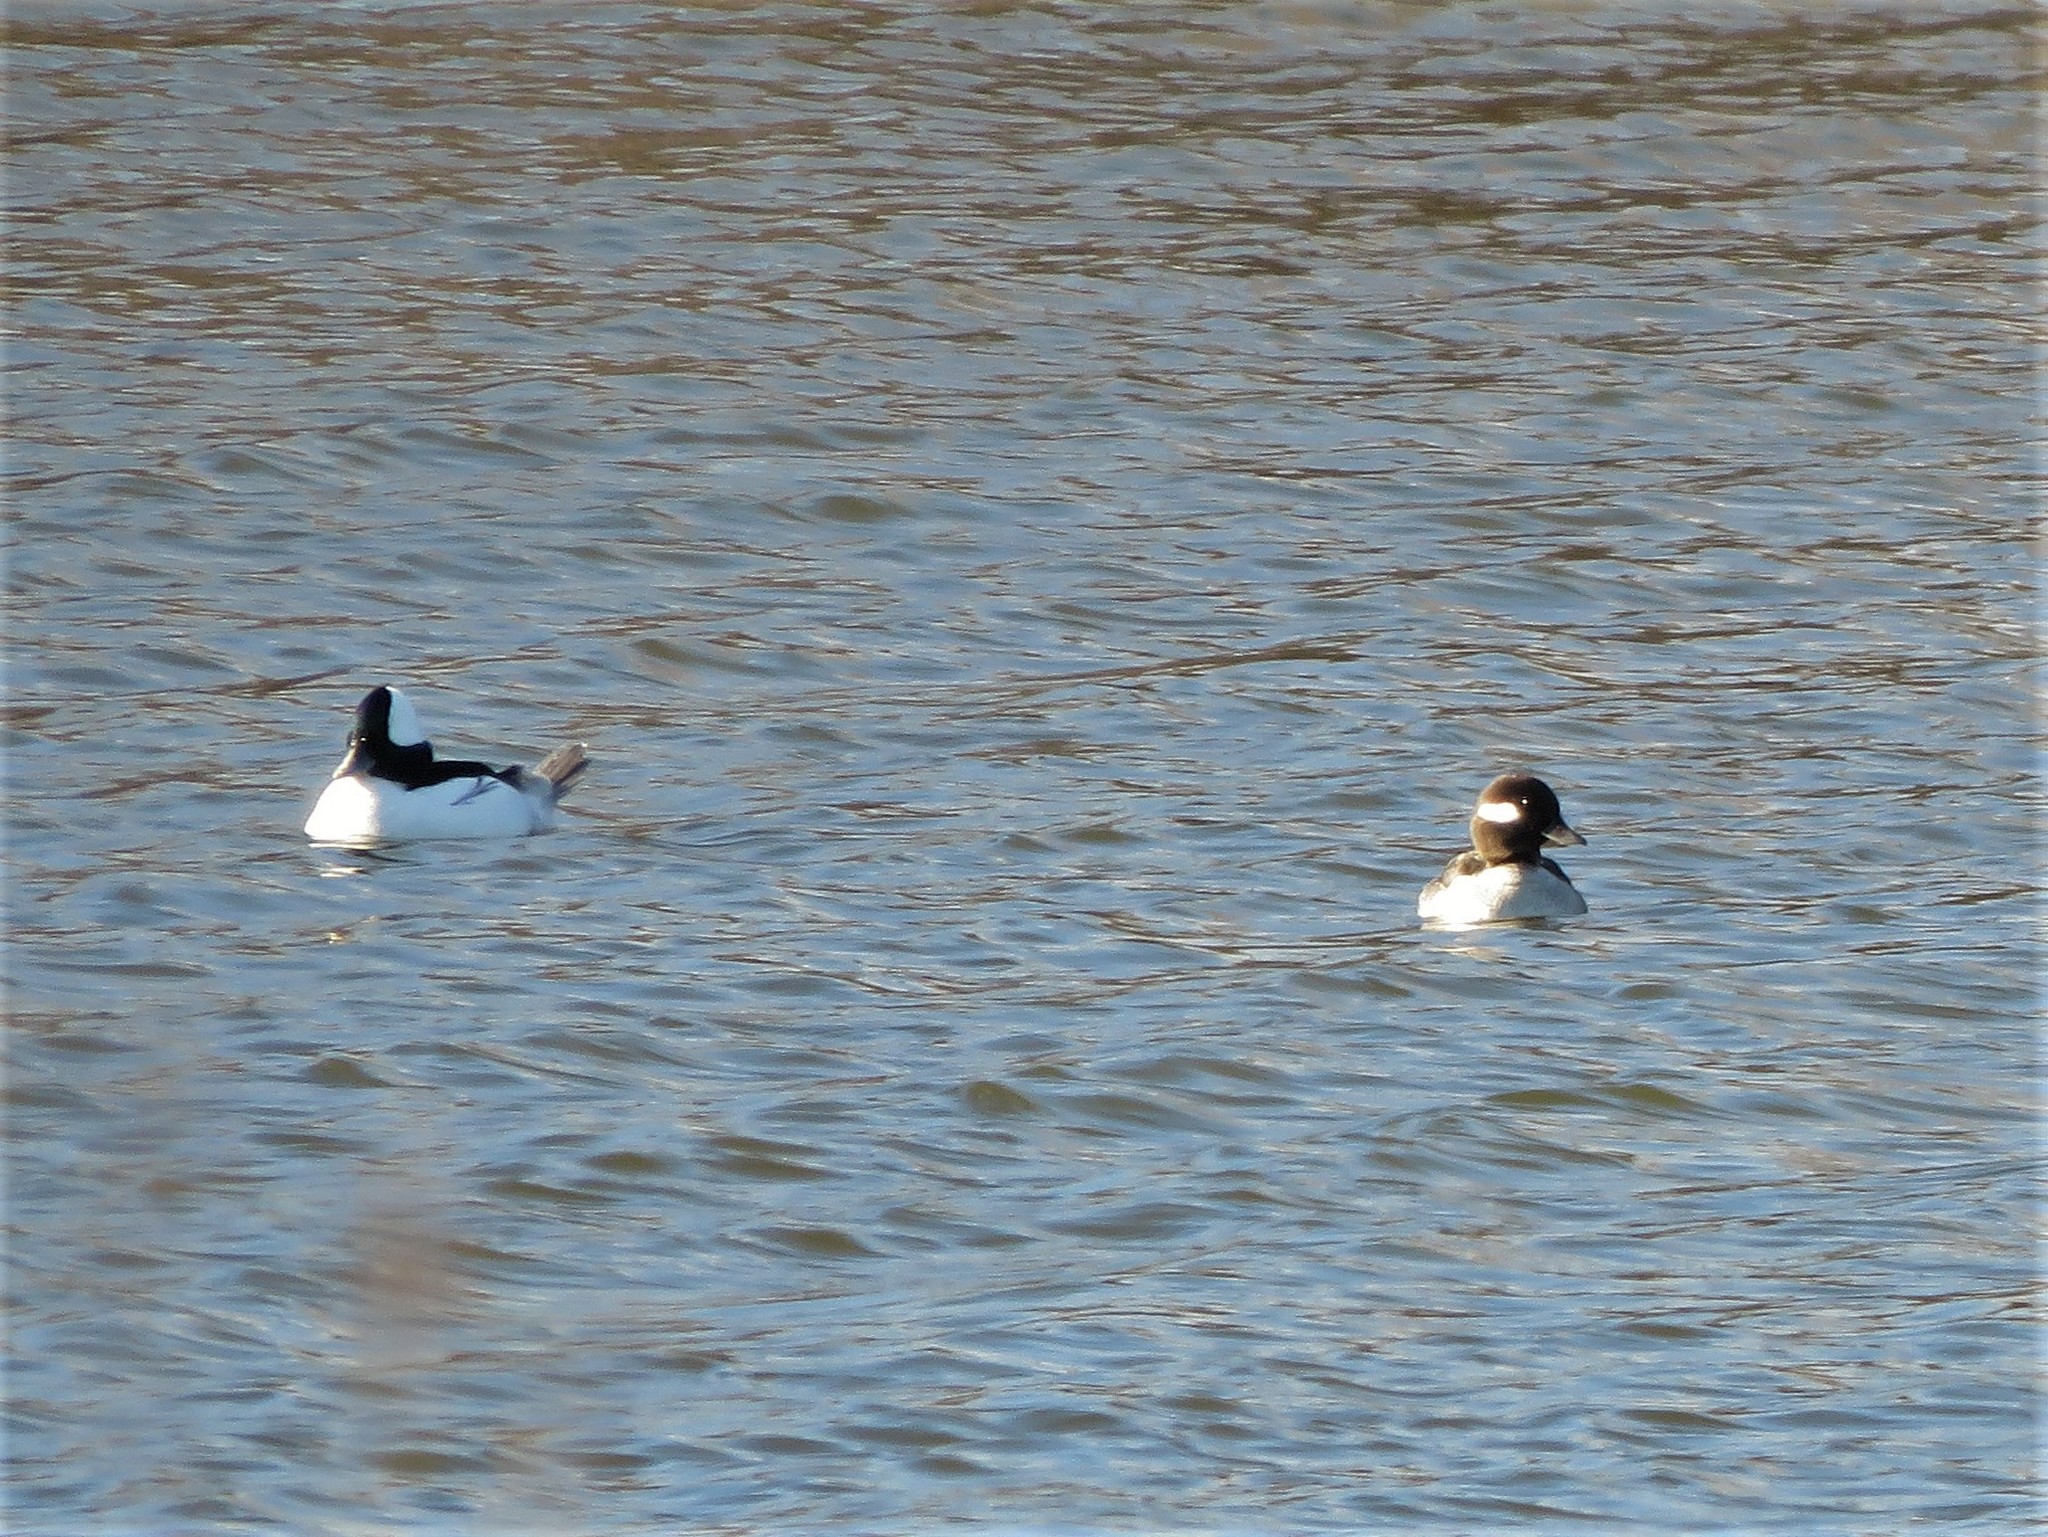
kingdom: Animalia
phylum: Chordata
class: Aves
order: Anseriformes
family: Anatidae
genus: Bucephala
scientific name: Bucephala albeola
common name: Bufflehead
